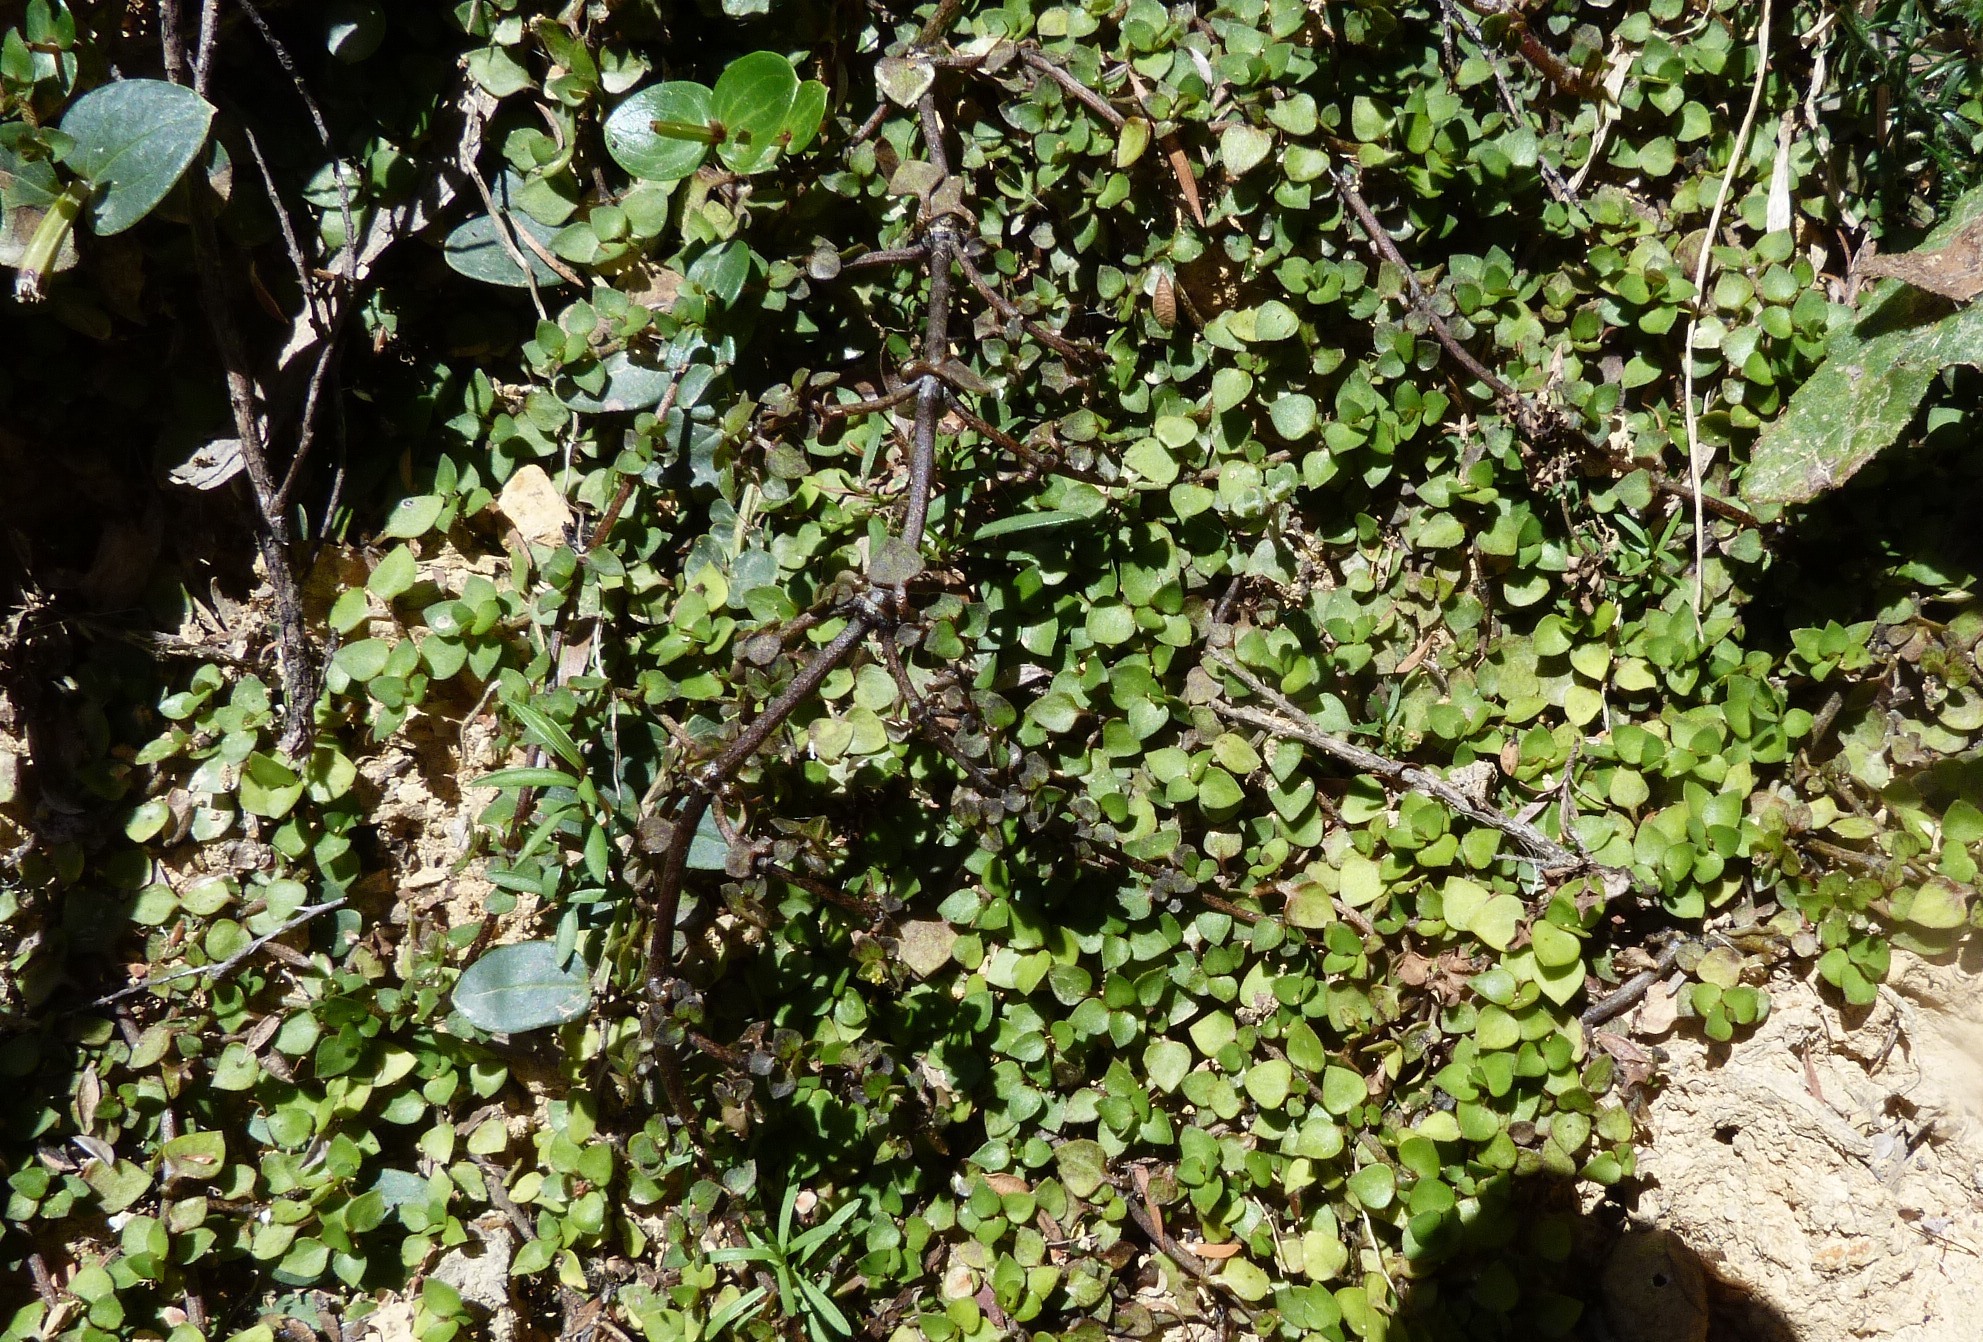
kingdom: Plantae
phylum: Tracheophyta
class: Magnoliopsida
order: Gentianales
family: Rubiaceae
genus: Nertera
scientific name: Nertera granadensis
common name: Beadplant
